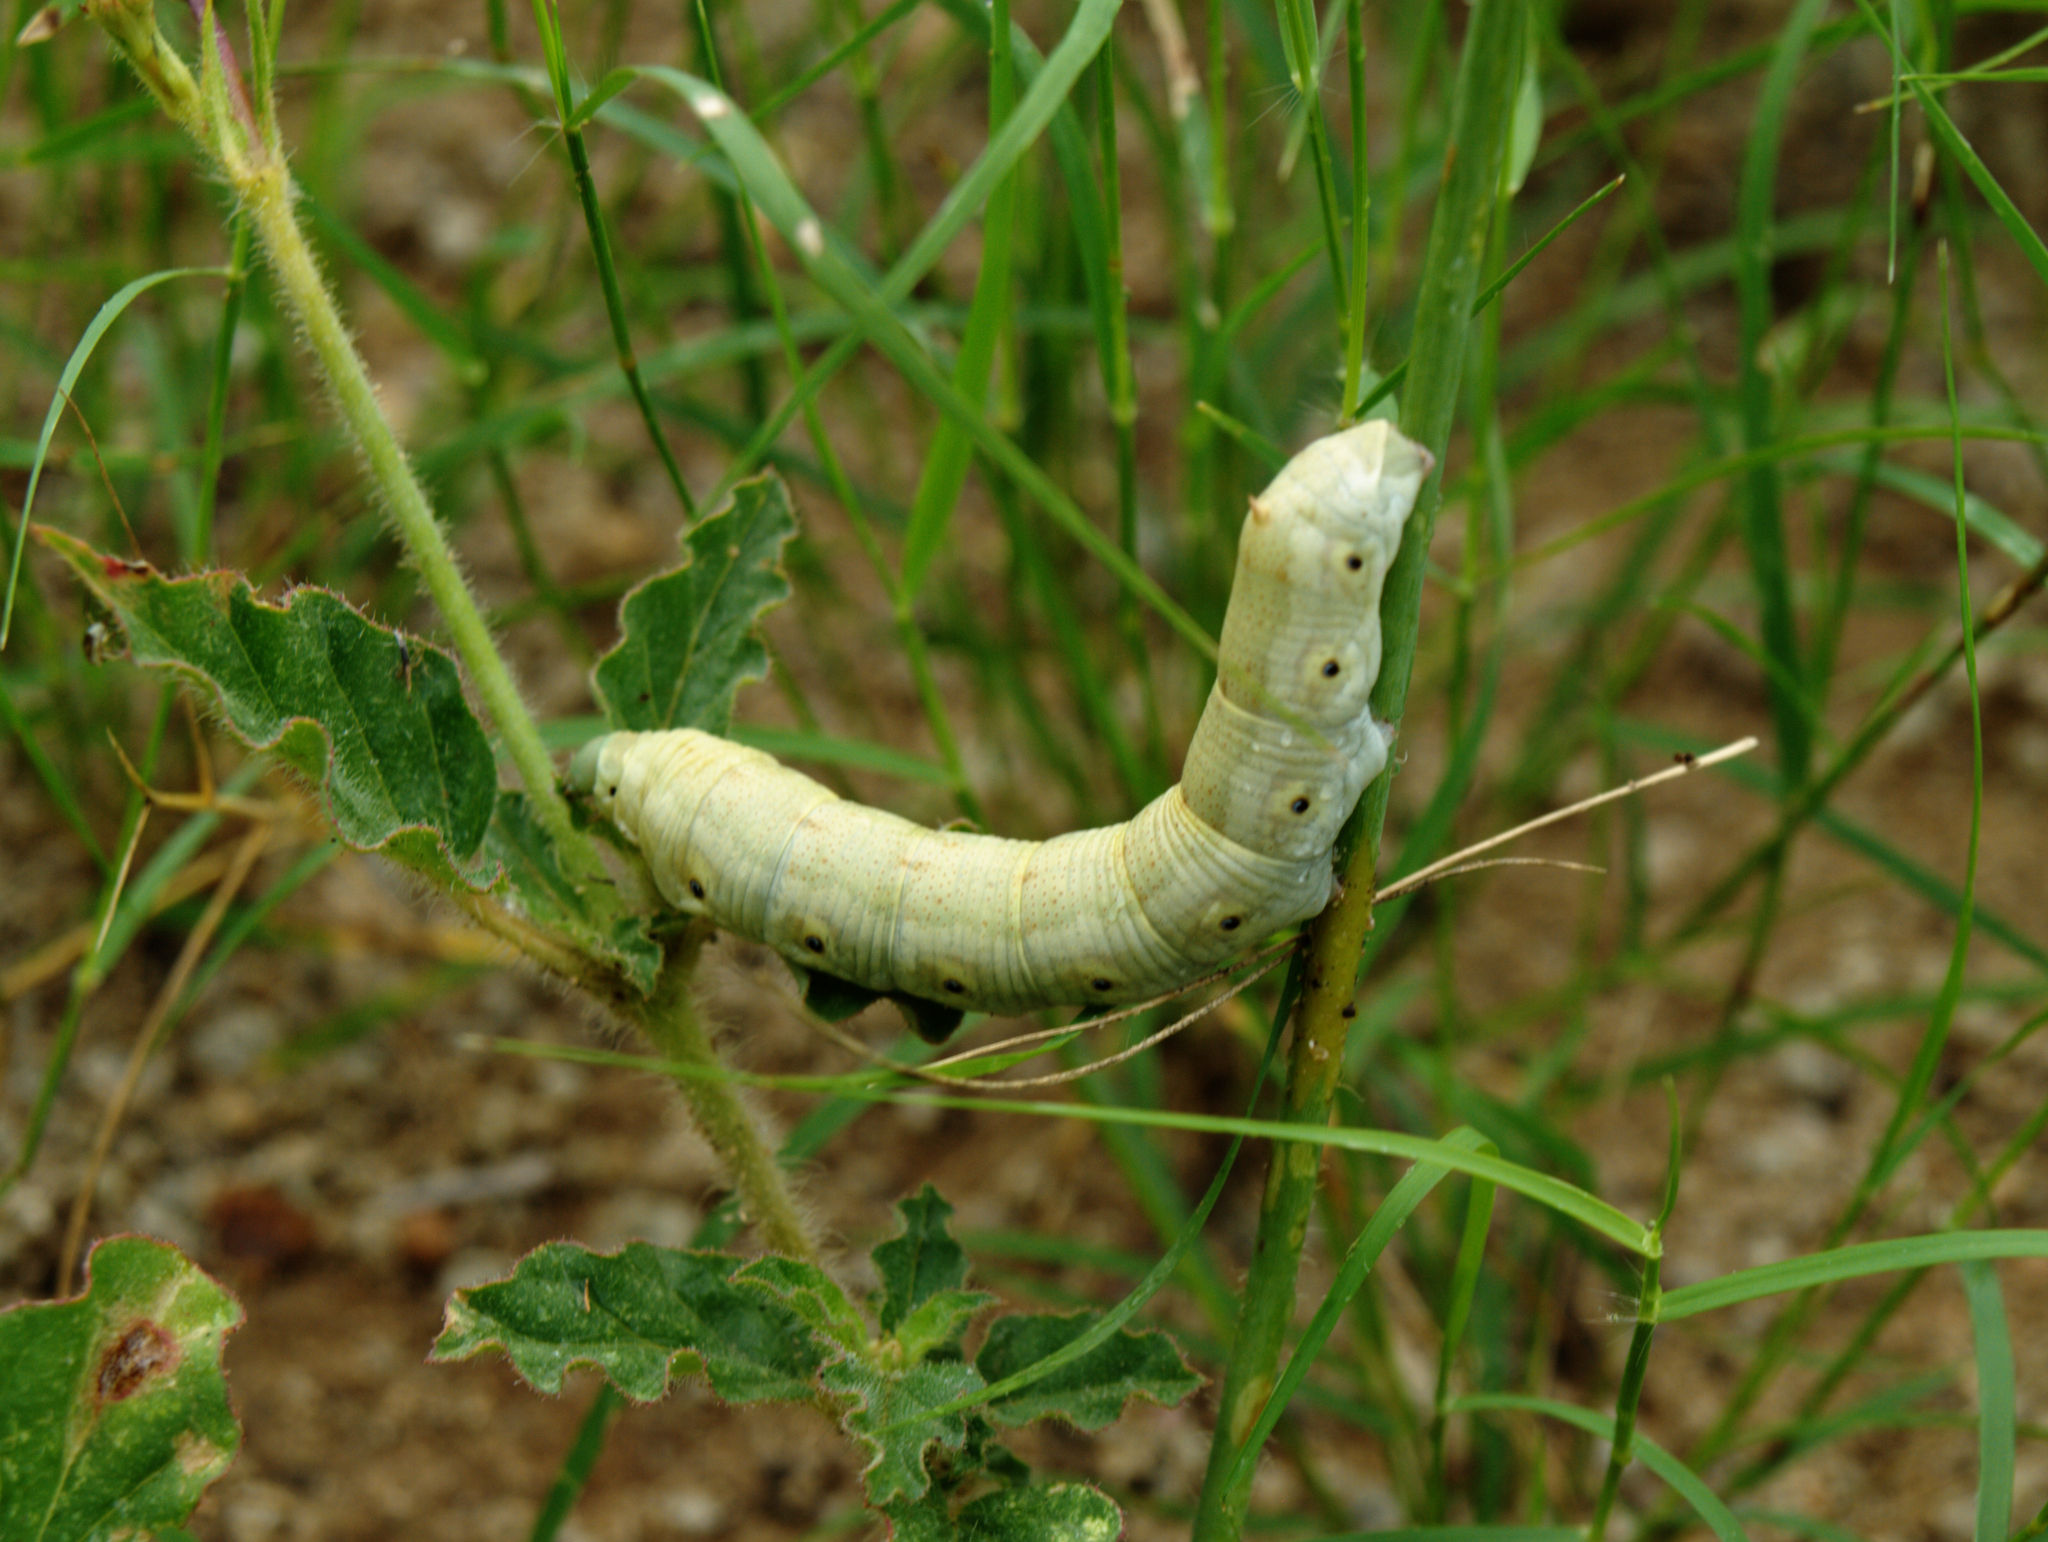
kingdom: Animalia
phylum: Arthropoda
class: Insecta
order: Lepidoptera
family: Sphingidae
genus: Proserpinus
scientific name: Proserpinus terlooii
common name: Terloo's sphinx
